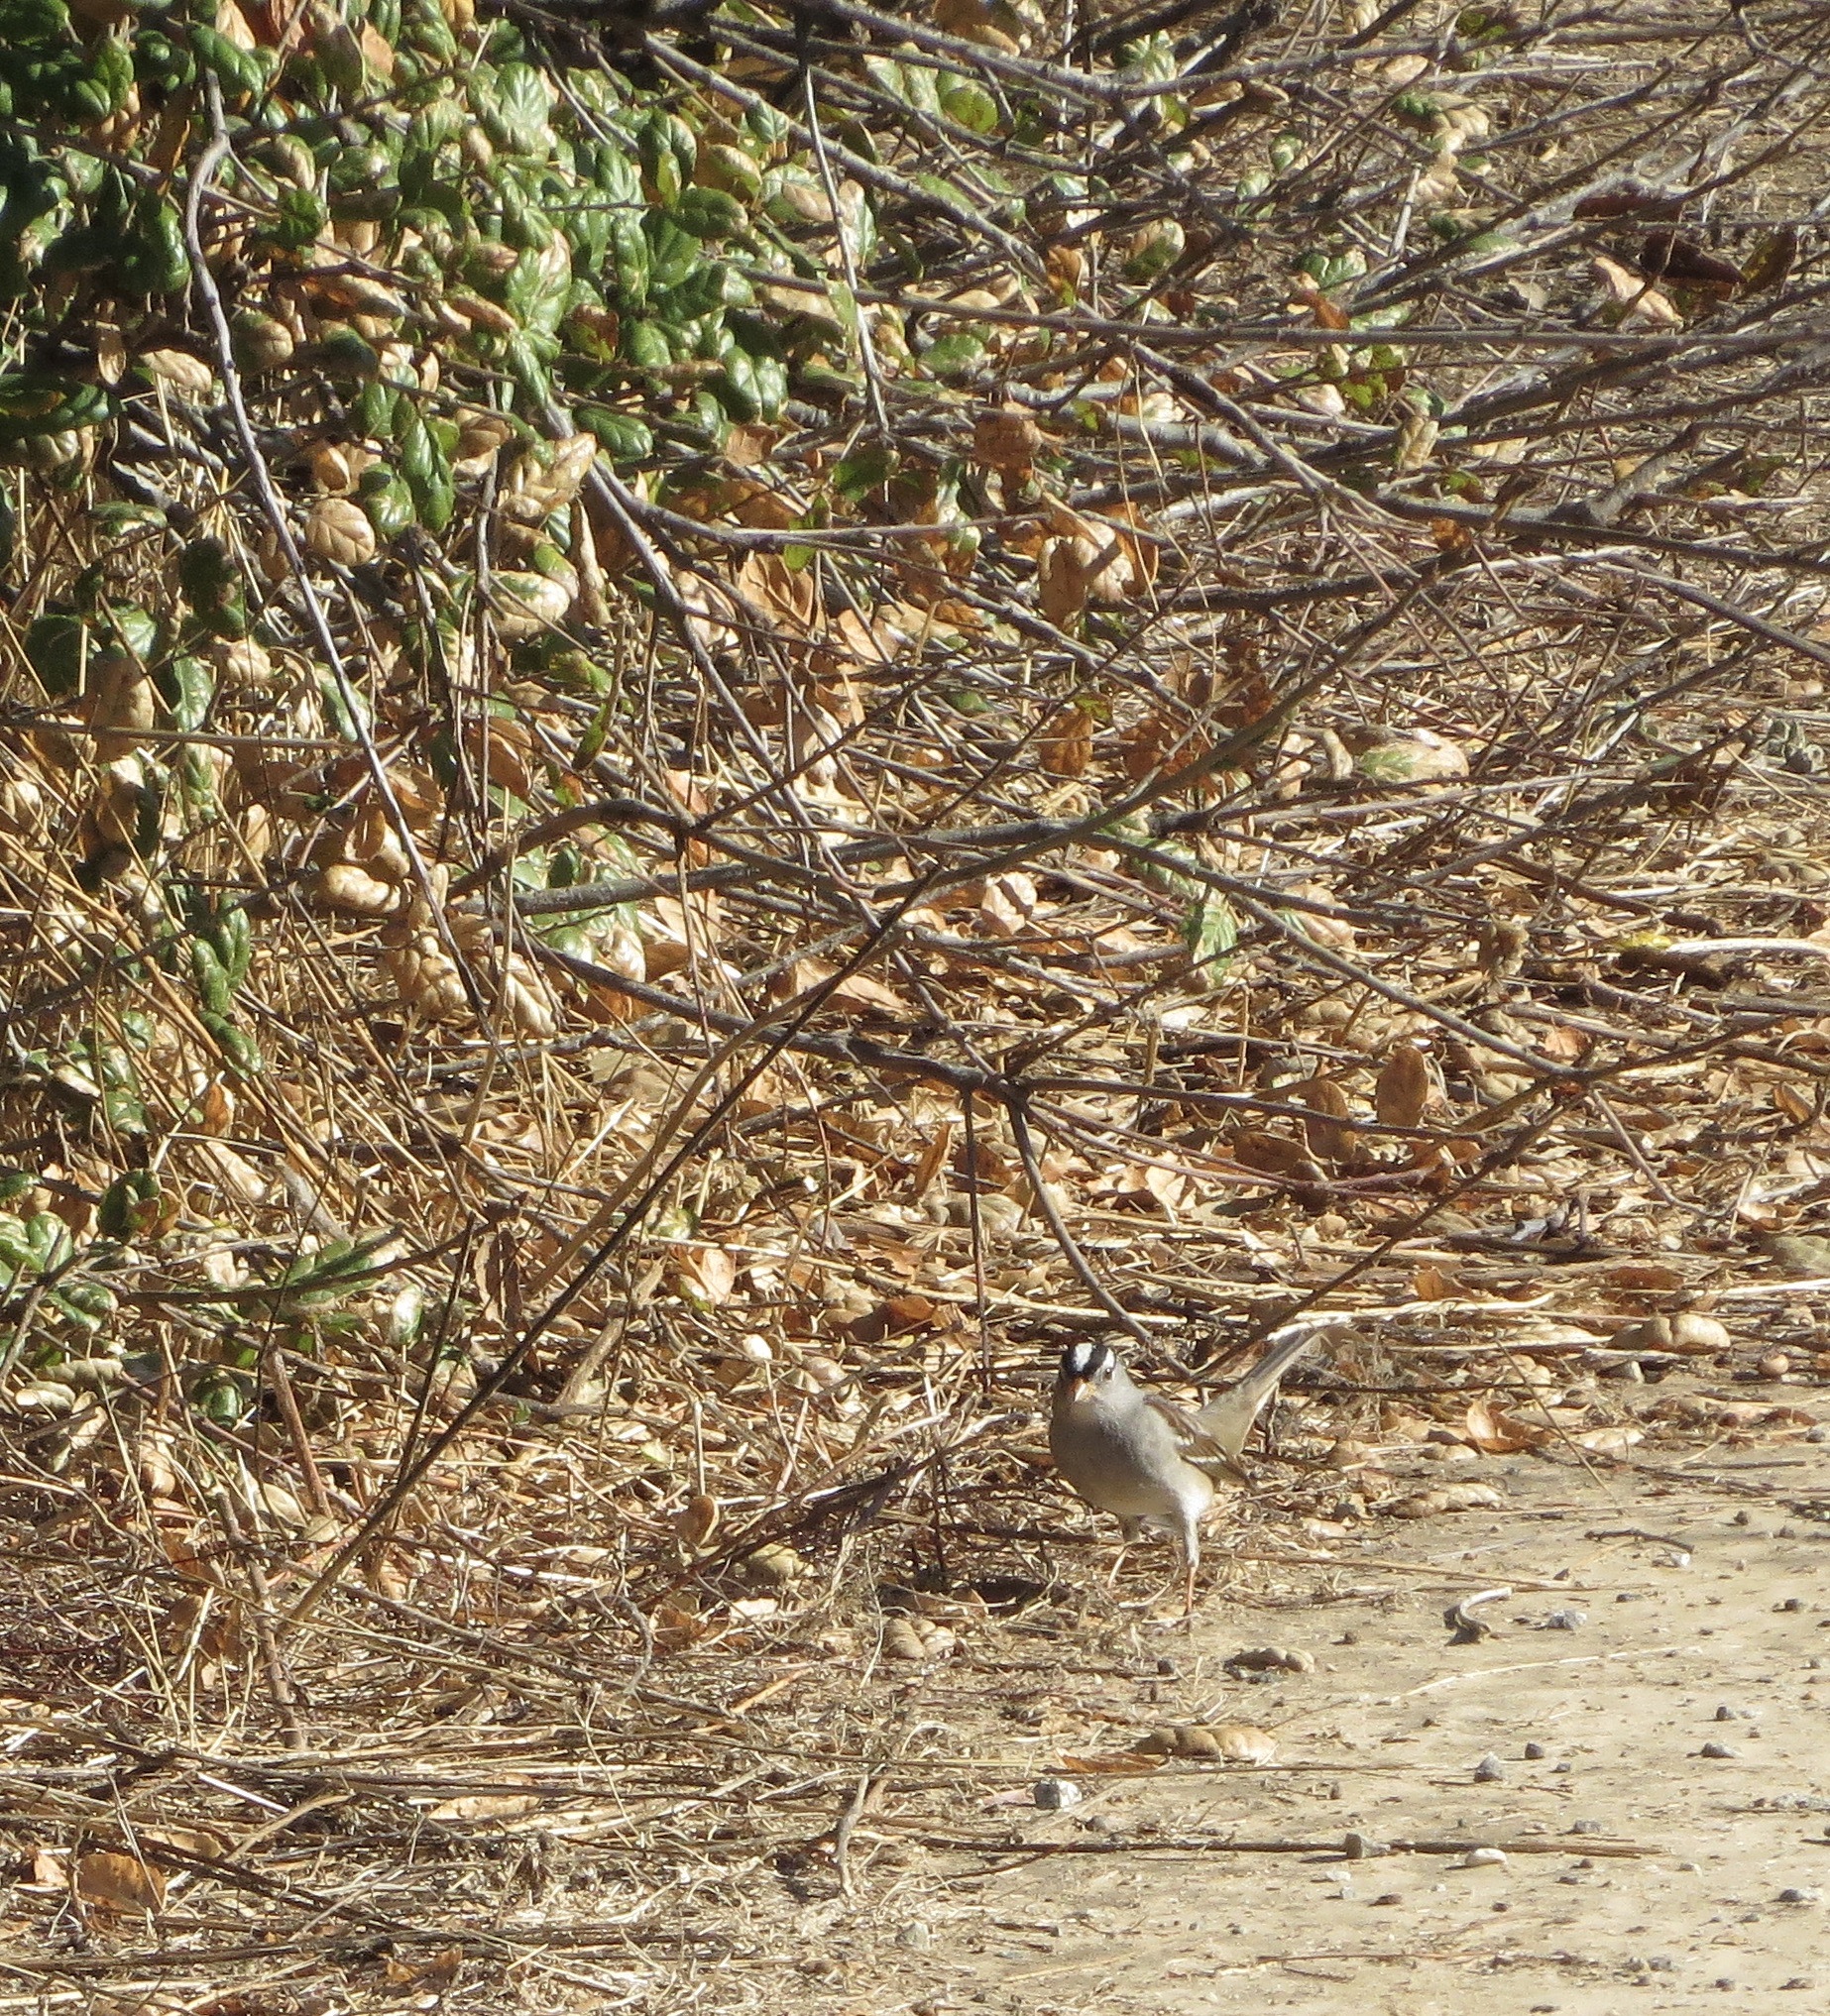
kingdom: Animalia
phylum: Chordata
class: Aves
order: Passeriformes
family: Passerellidae
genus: Zonotrichia
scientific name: Zonotrichia leucophrys
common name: White-crowned sparrow
